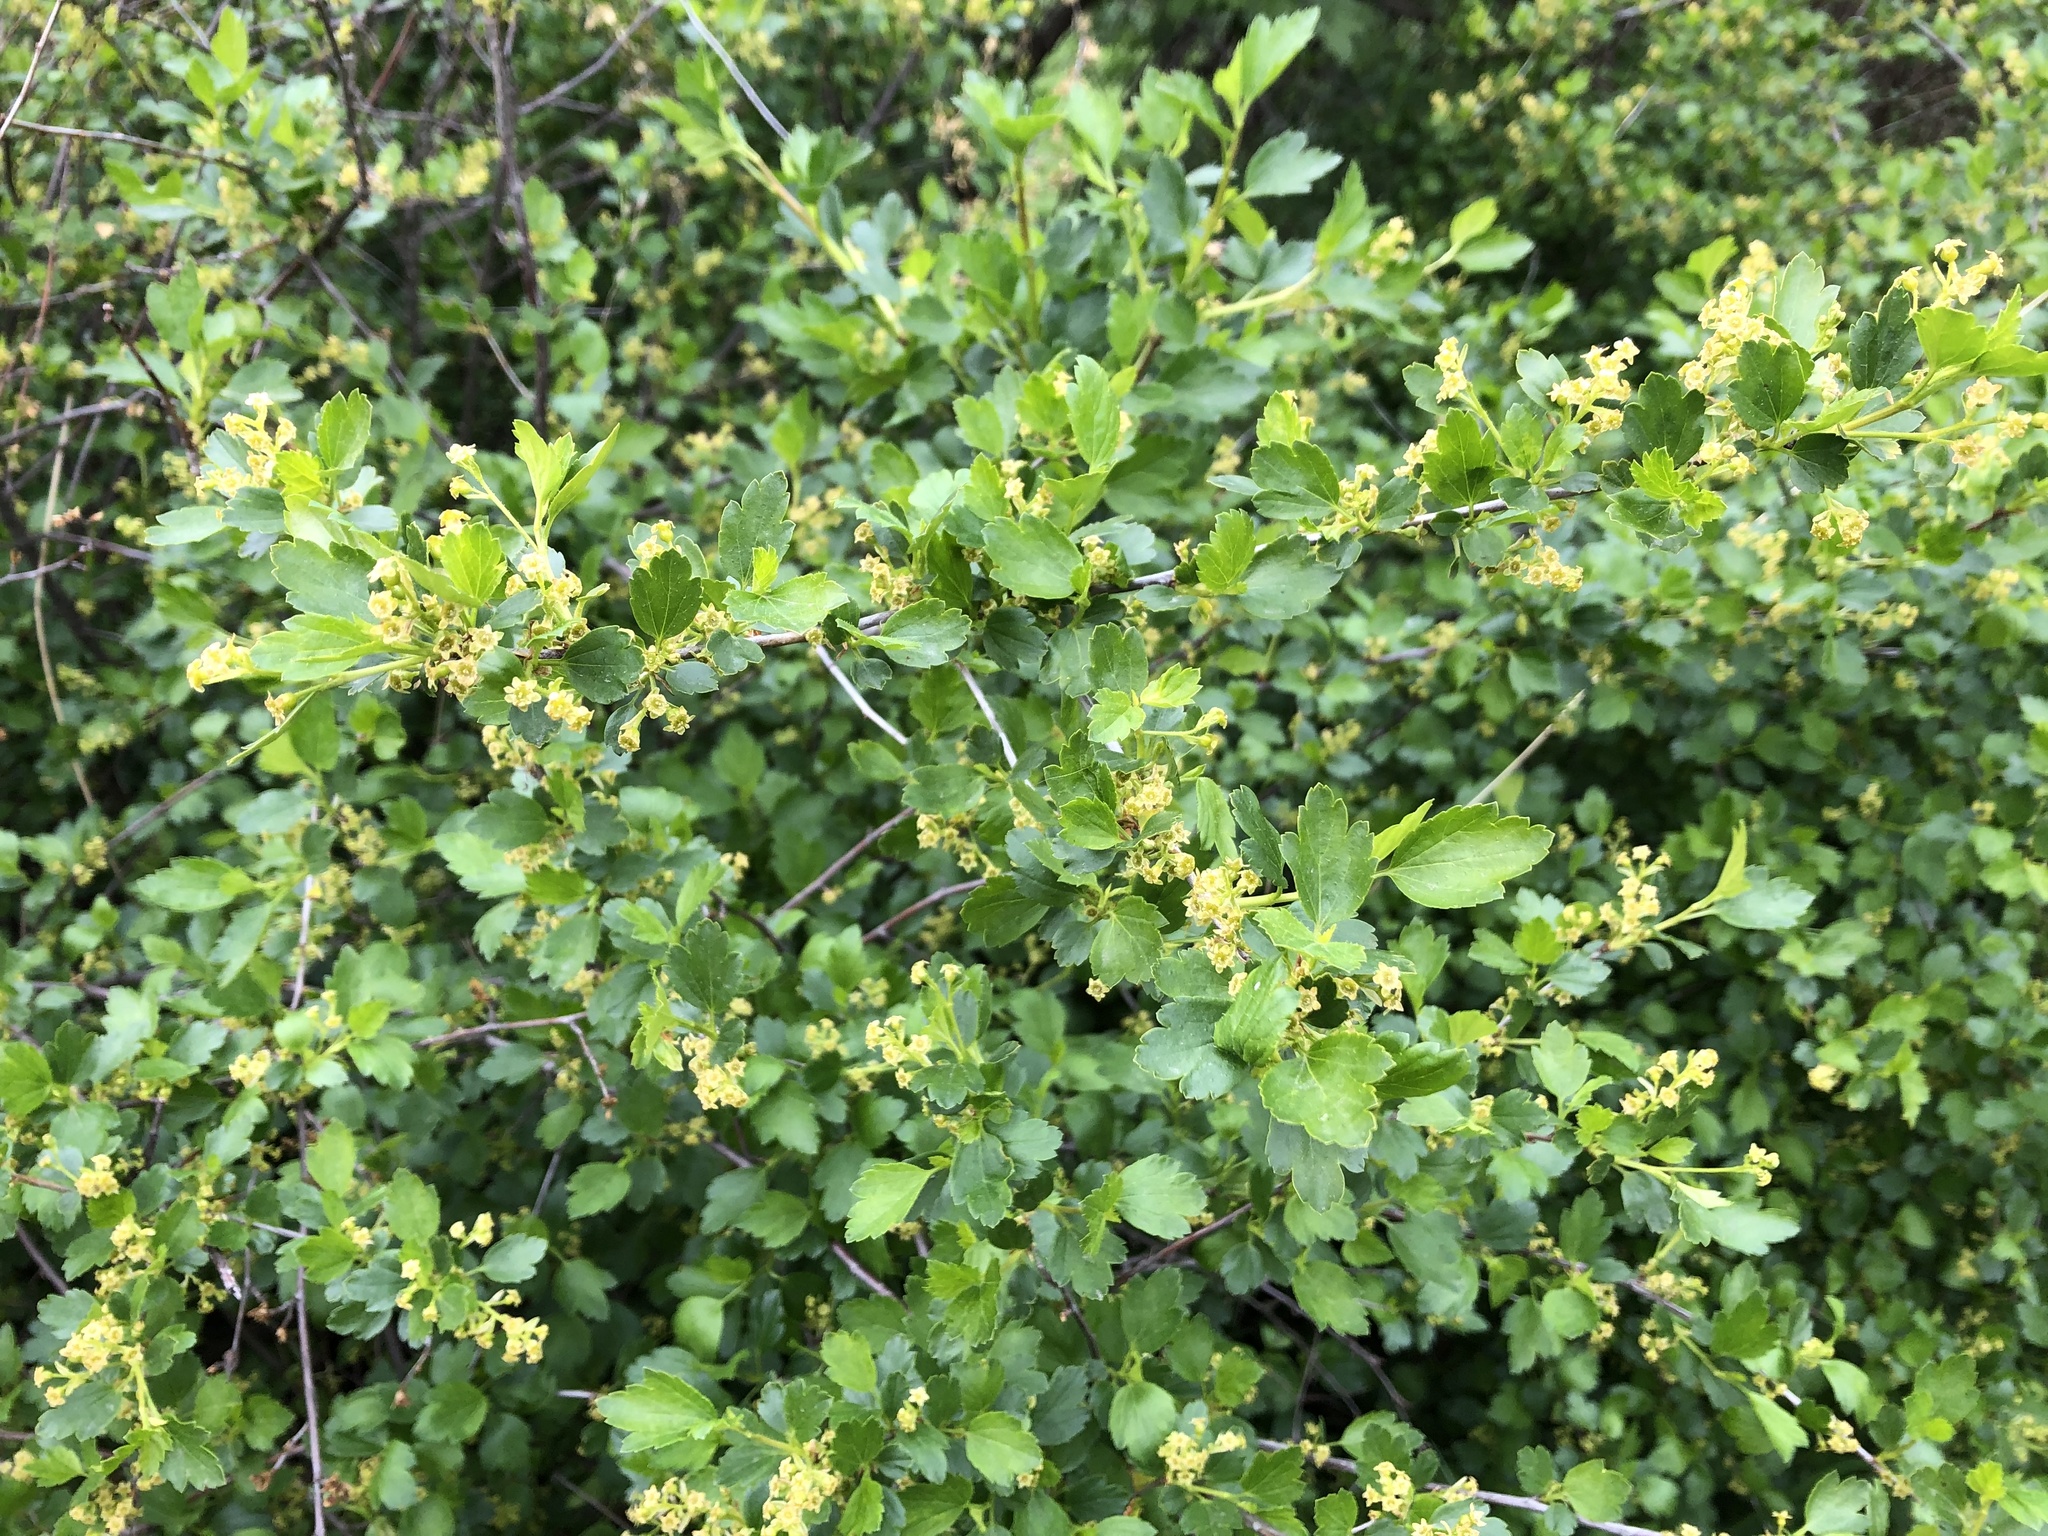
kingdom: Plantae
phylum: Tracheophyta
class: Magnoliopsida
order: Saxifragales
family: Grossulariaceae
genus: Ribes
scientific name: Ribes alpinum
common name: Alpine currant
